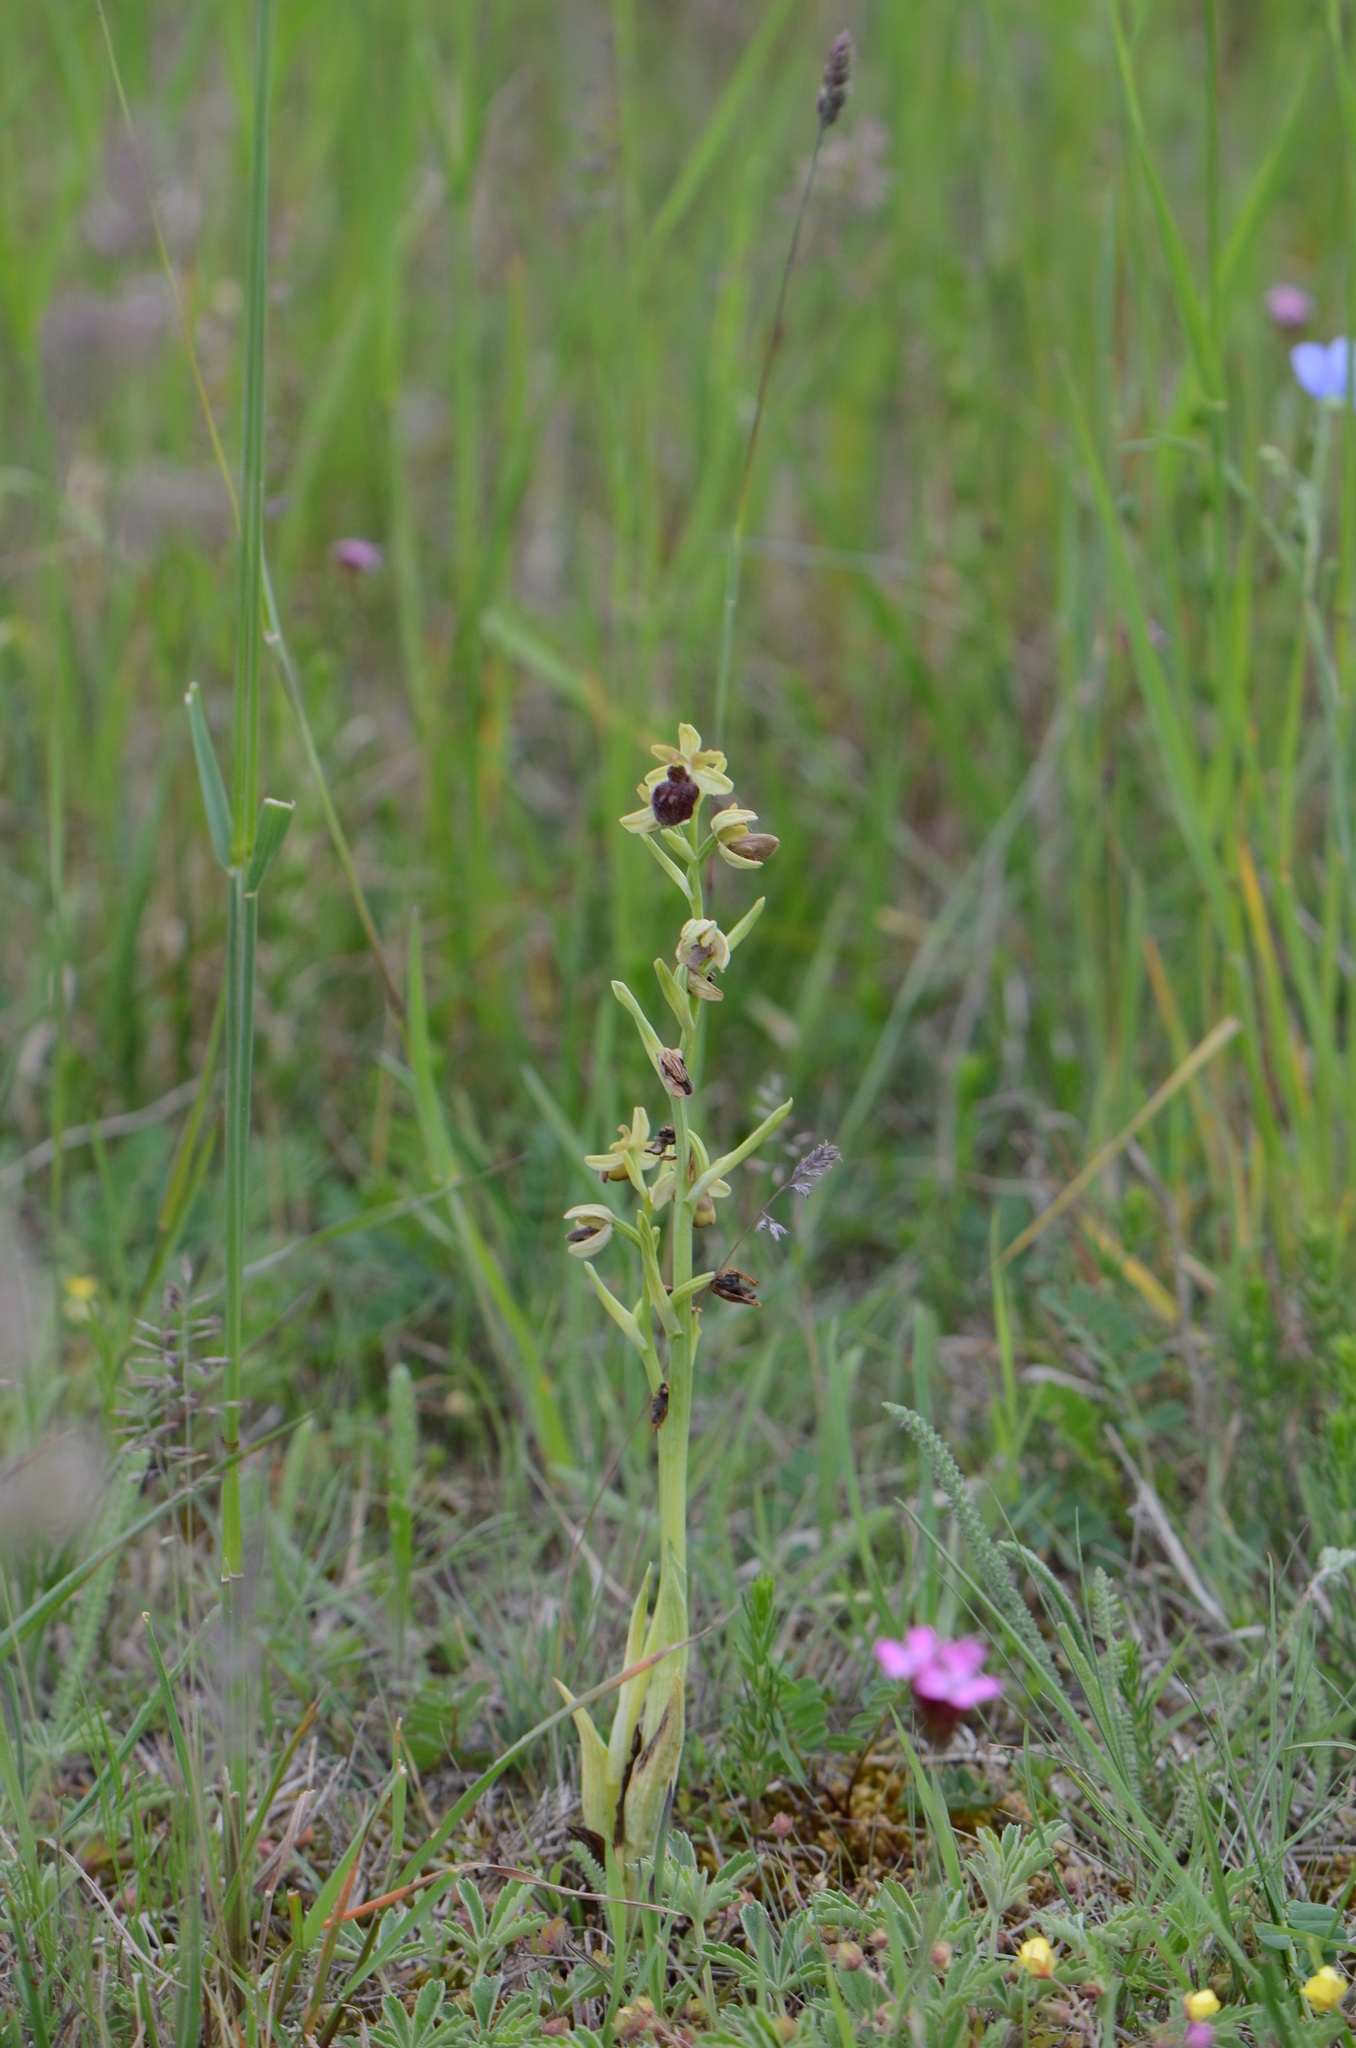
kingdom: Plantae
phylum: Tracheophyta
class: Liliopsida
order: Asparagales
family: Orchidaceae
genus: Ophrys
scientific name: Ophrys sphegodes
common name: Early spider-orchid
